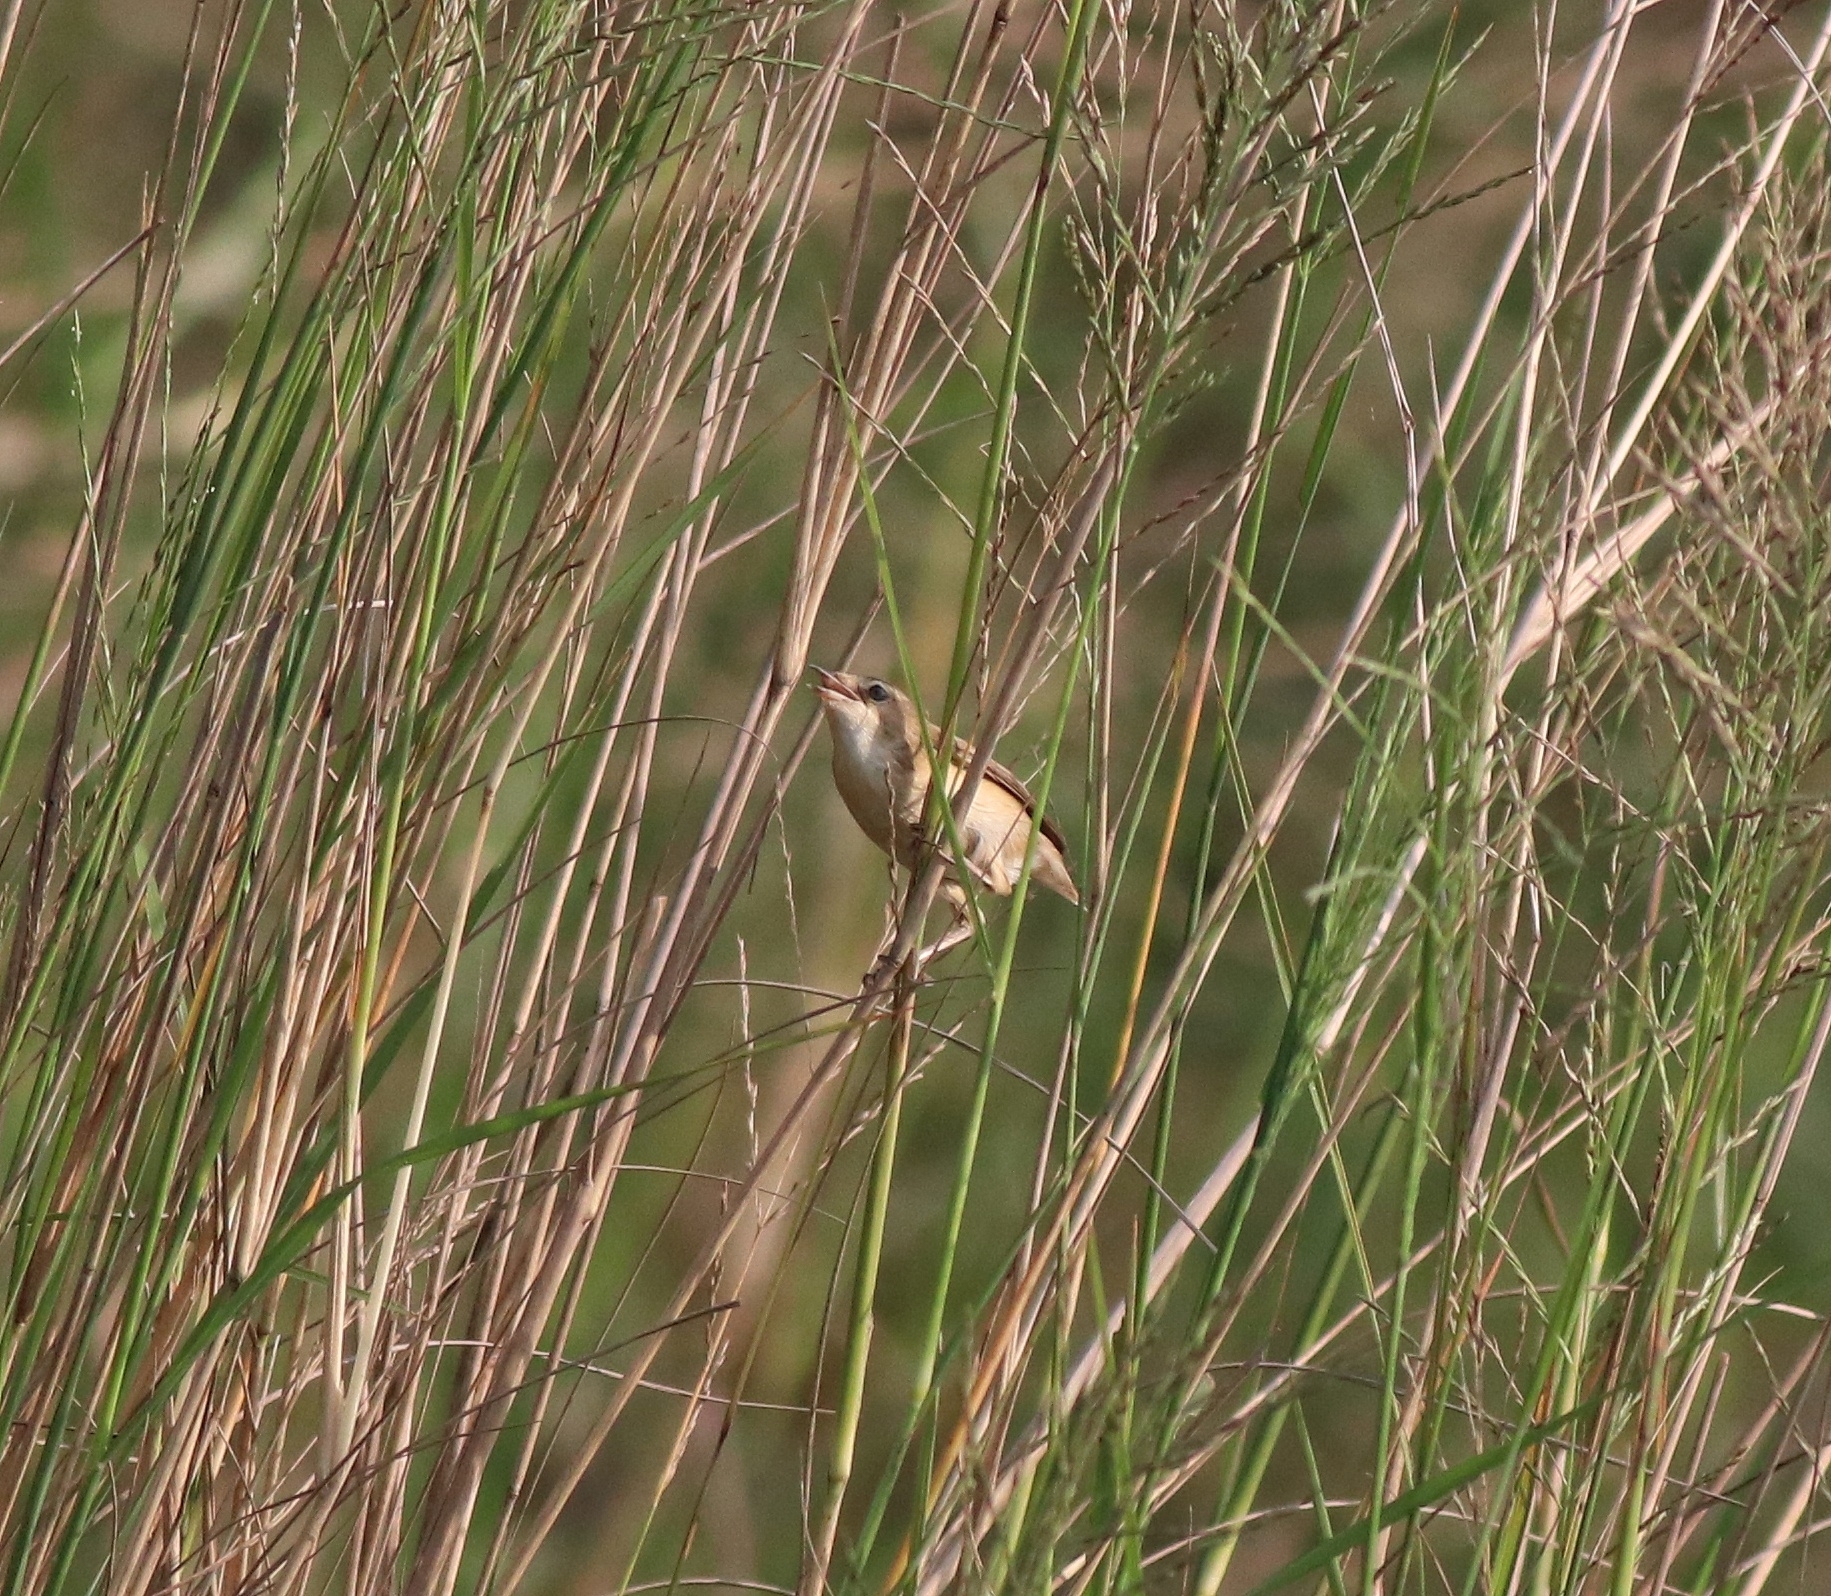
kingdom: Animalia
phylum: Chordata
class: Aves
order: Passeriformes
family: Acrocephalidae
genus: Acrocephalus
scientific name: Acrocephalus agricola
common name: Paddyfield warbler
